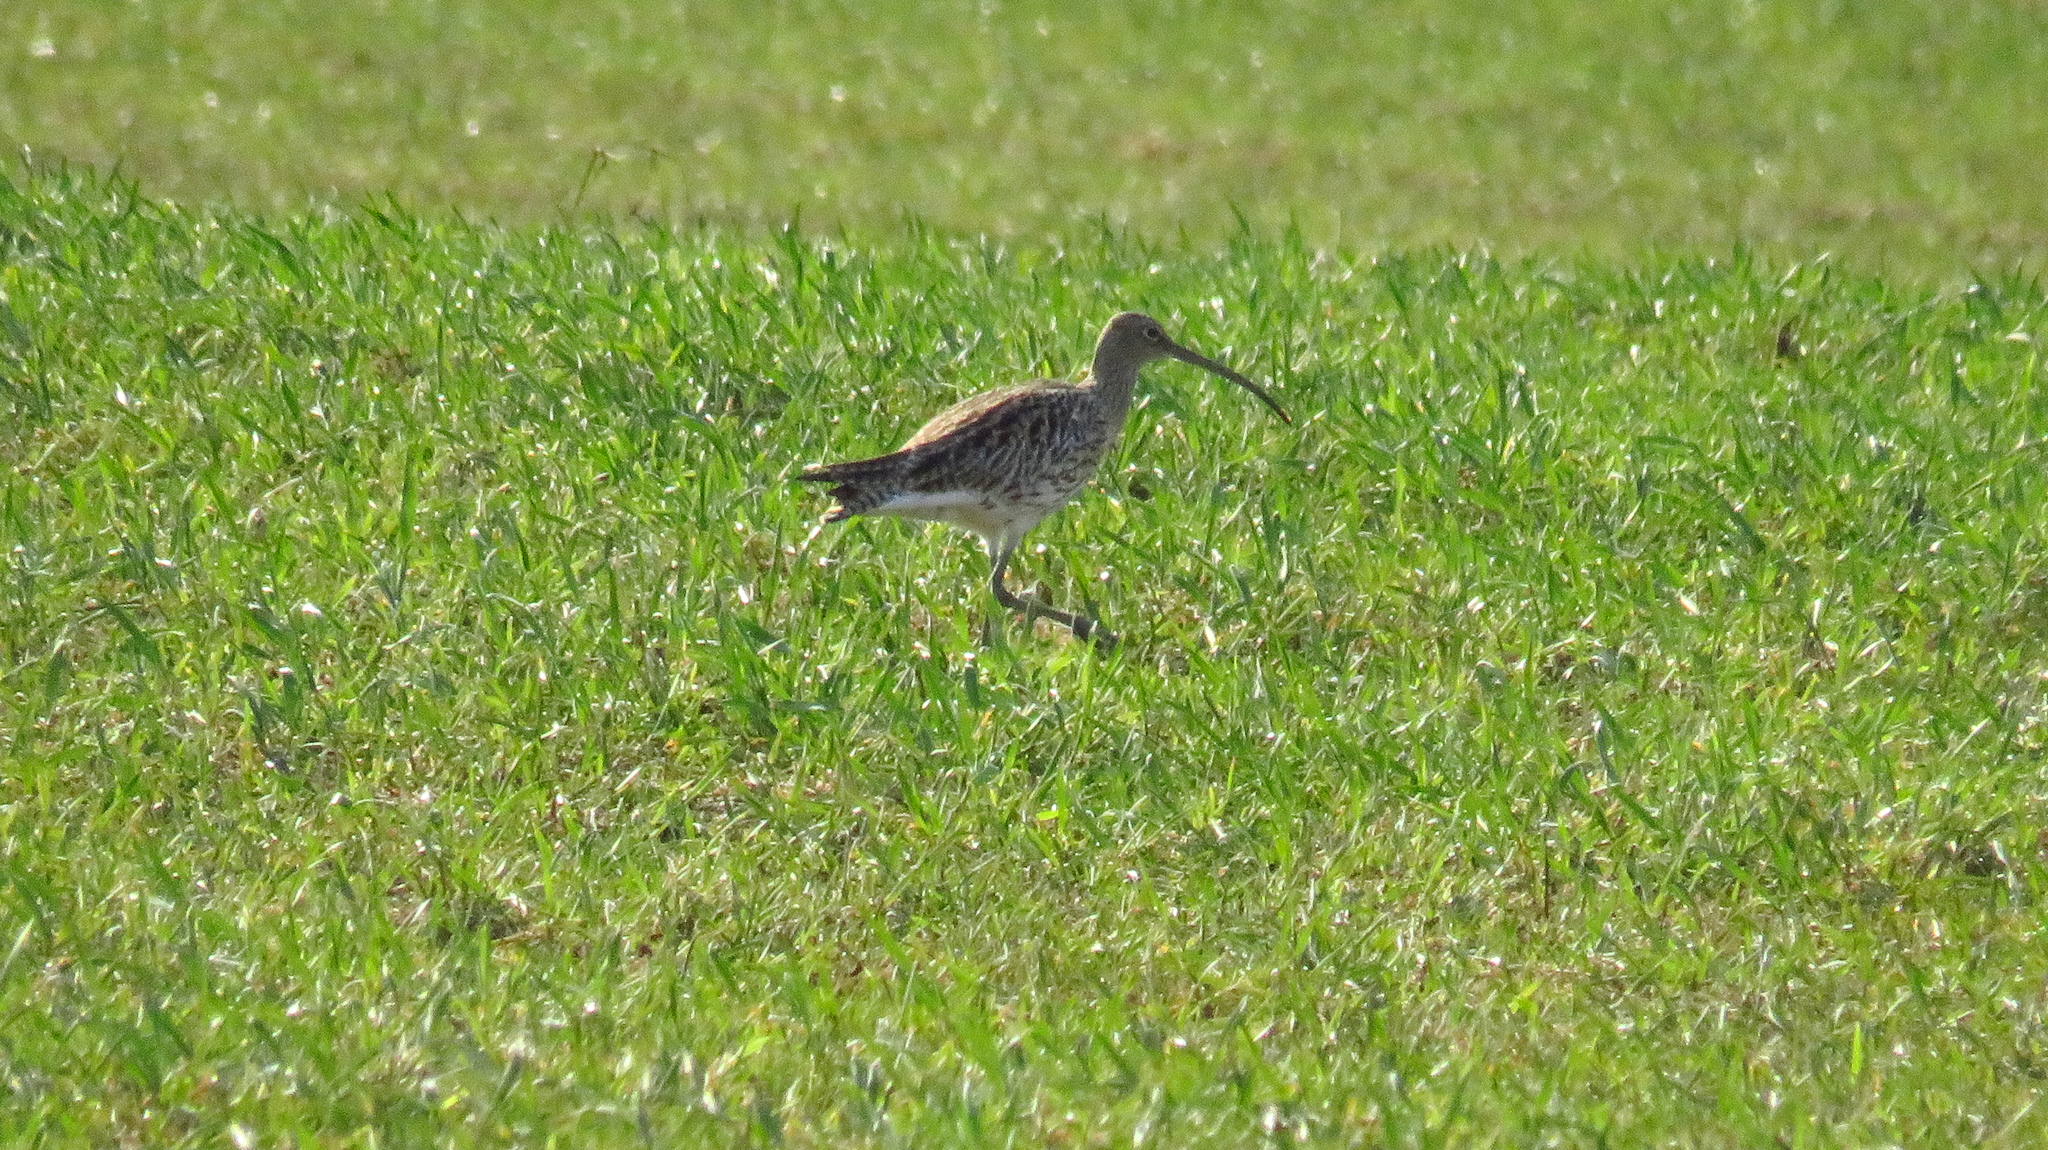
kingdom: Animalia
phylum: Chordata
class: Aves
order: Charadriiformes
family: Scolopacidae
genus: Numenius
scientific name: Numenius arquata
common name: Eurasian curlew
